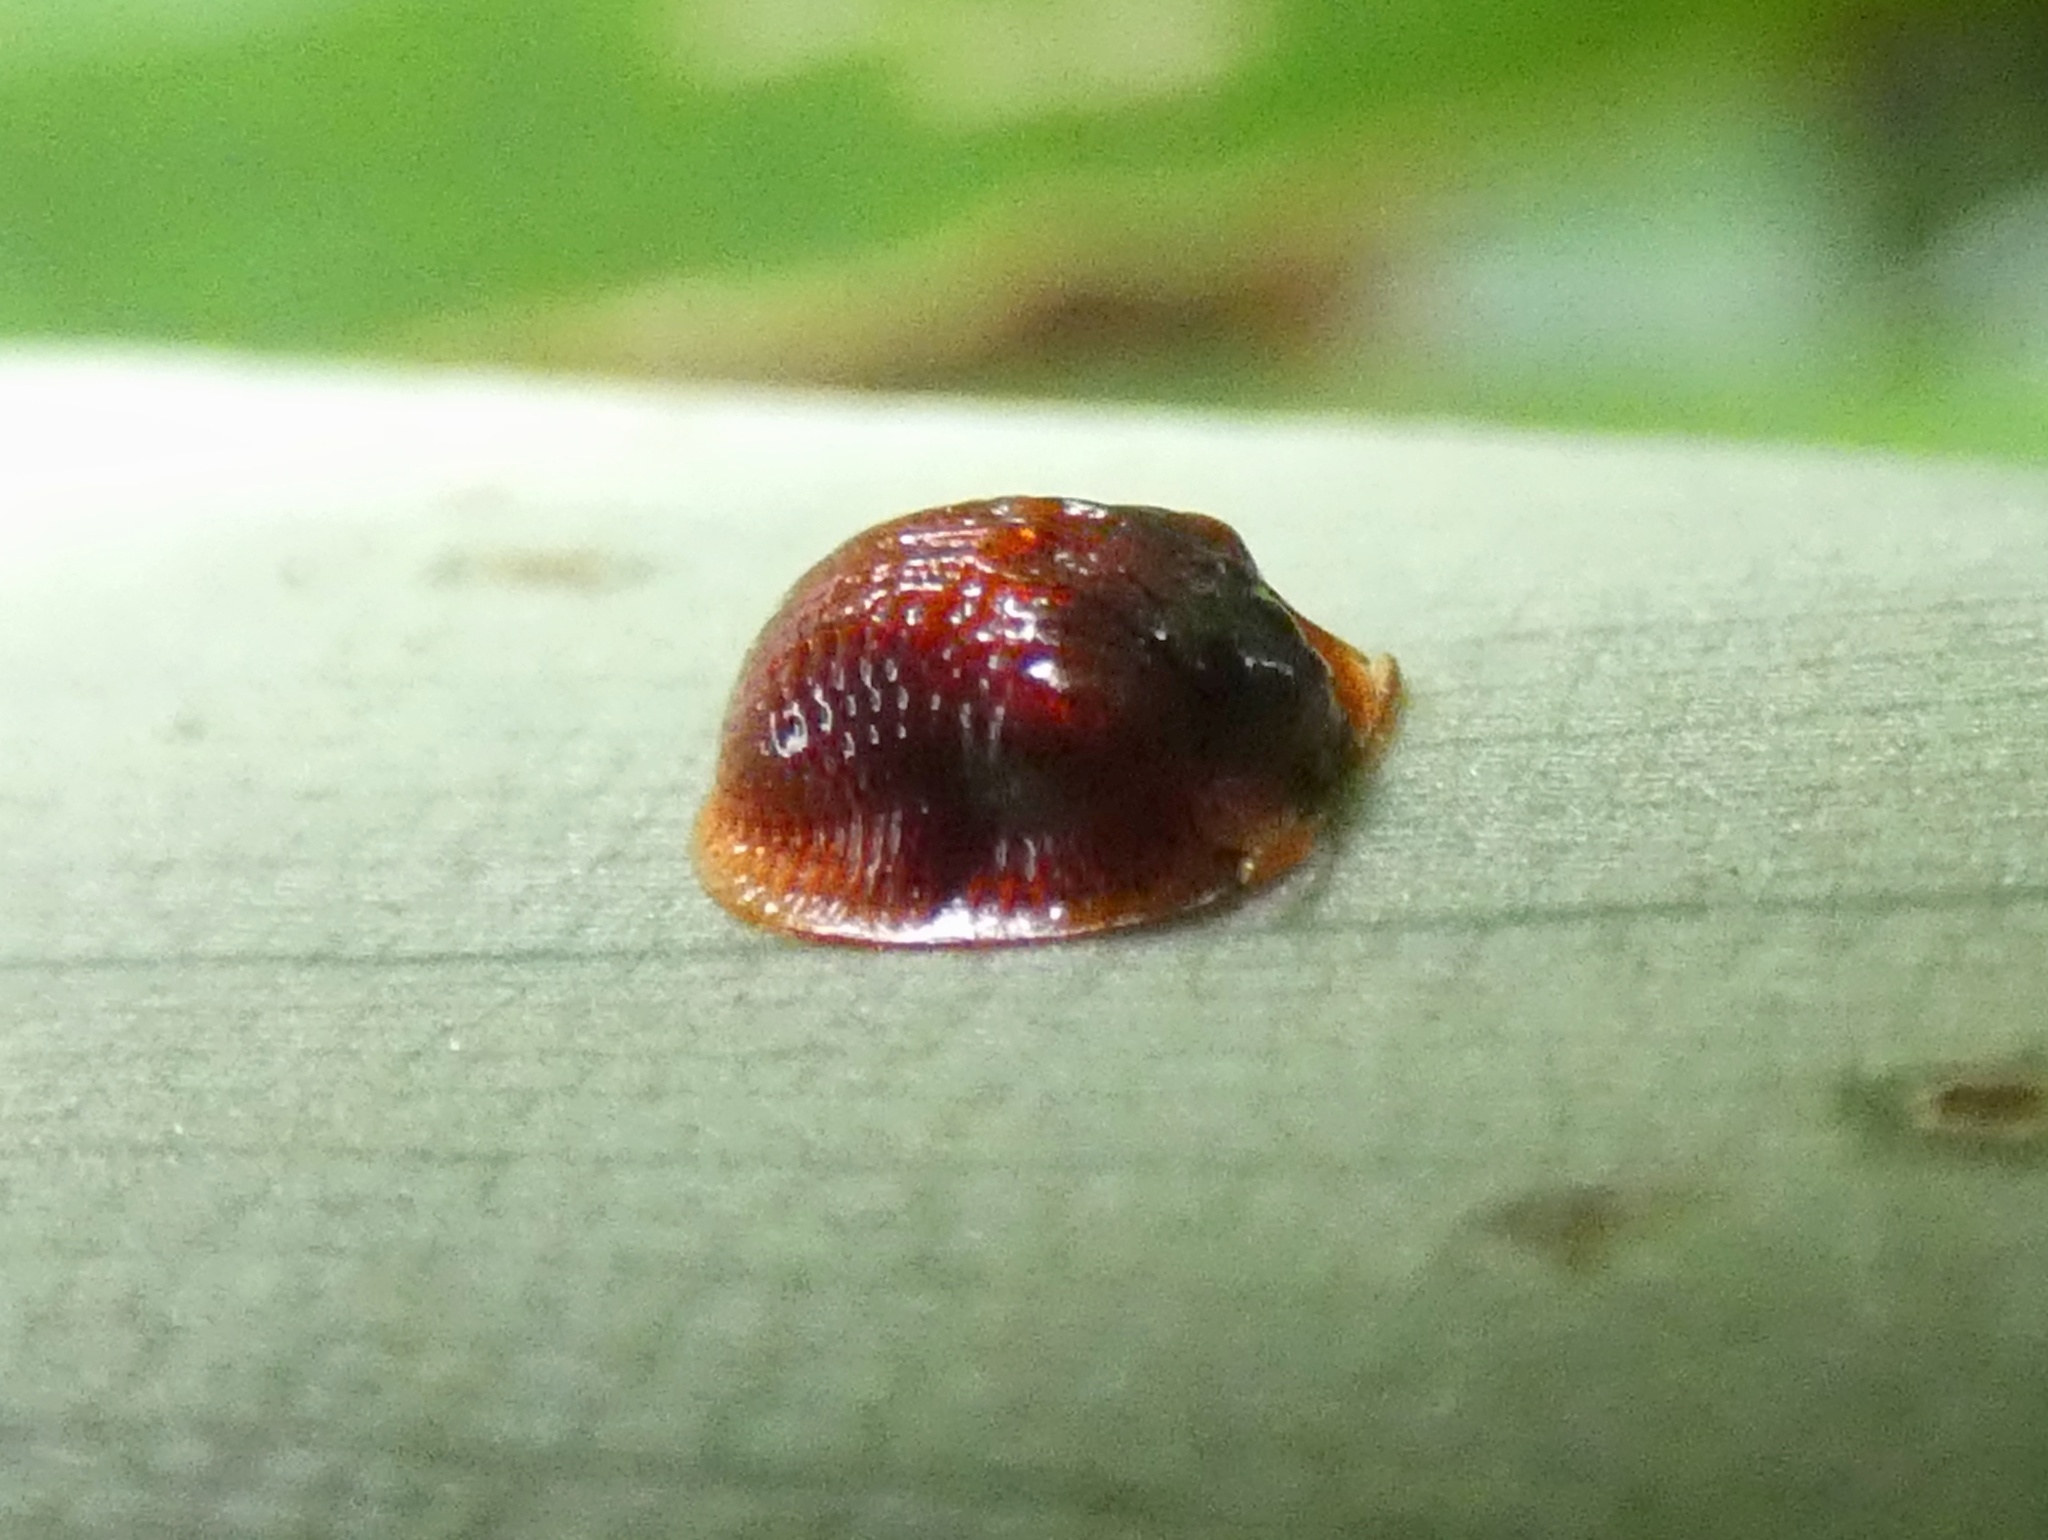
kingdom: Animalia
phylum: Arthropoda
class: Insecta
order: Coleoptera
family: Chrysomelidae
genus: Spaethiella
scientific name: Spaethiella miniata
